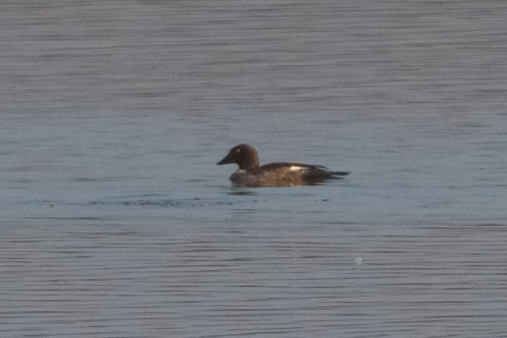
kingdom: Animalia
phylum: Chordata
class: Aves
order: Anseriformes
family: Anatidae
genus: Bucephala
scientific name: Bucephala clangula
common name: Common goldeneye
